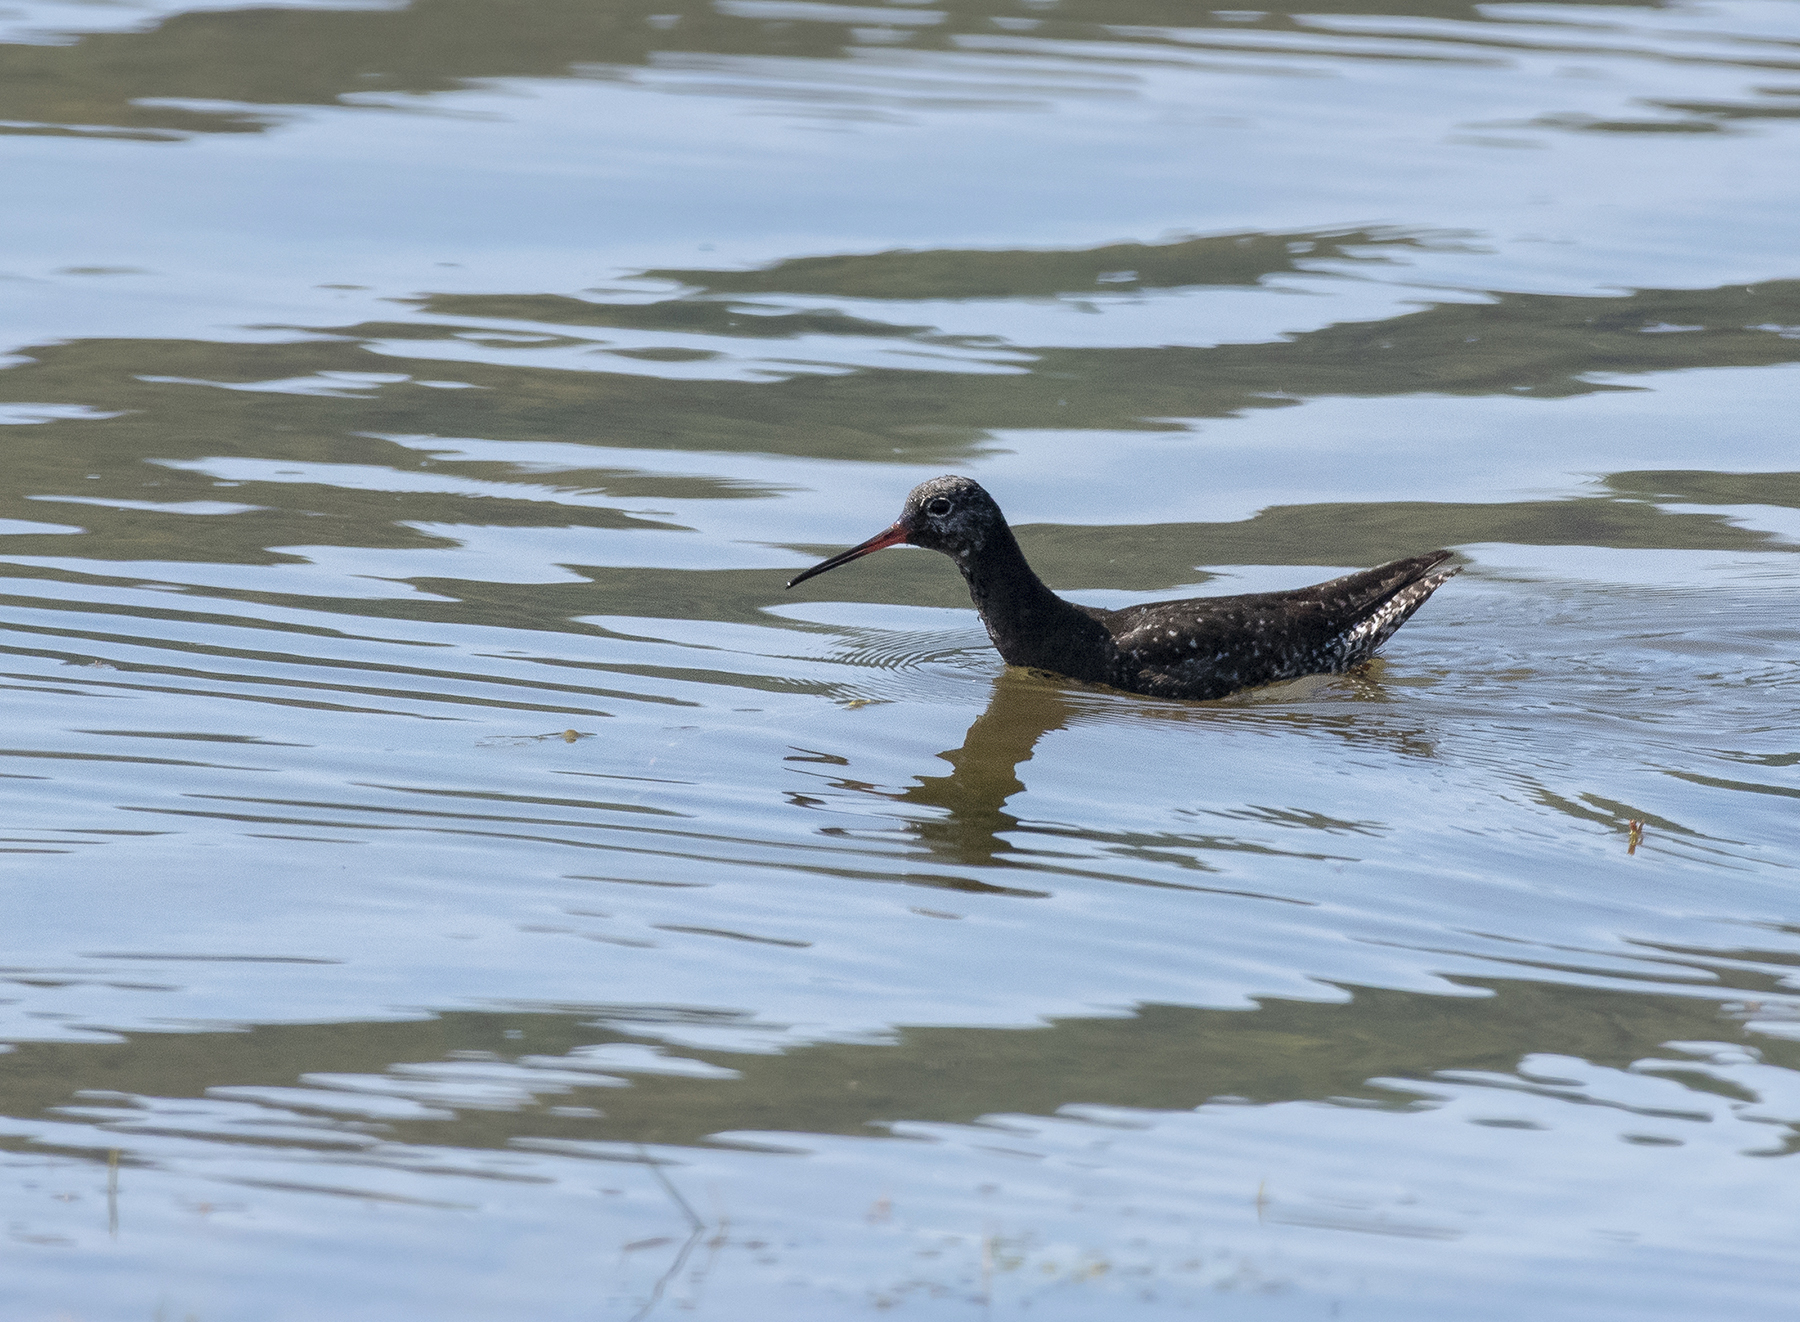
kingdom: Animalia
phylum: Chordata
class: Aves
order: Charadriiformes
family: Scolopacidae
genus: Tringa
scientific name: Tringa erythropus
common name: Spotted redshank
